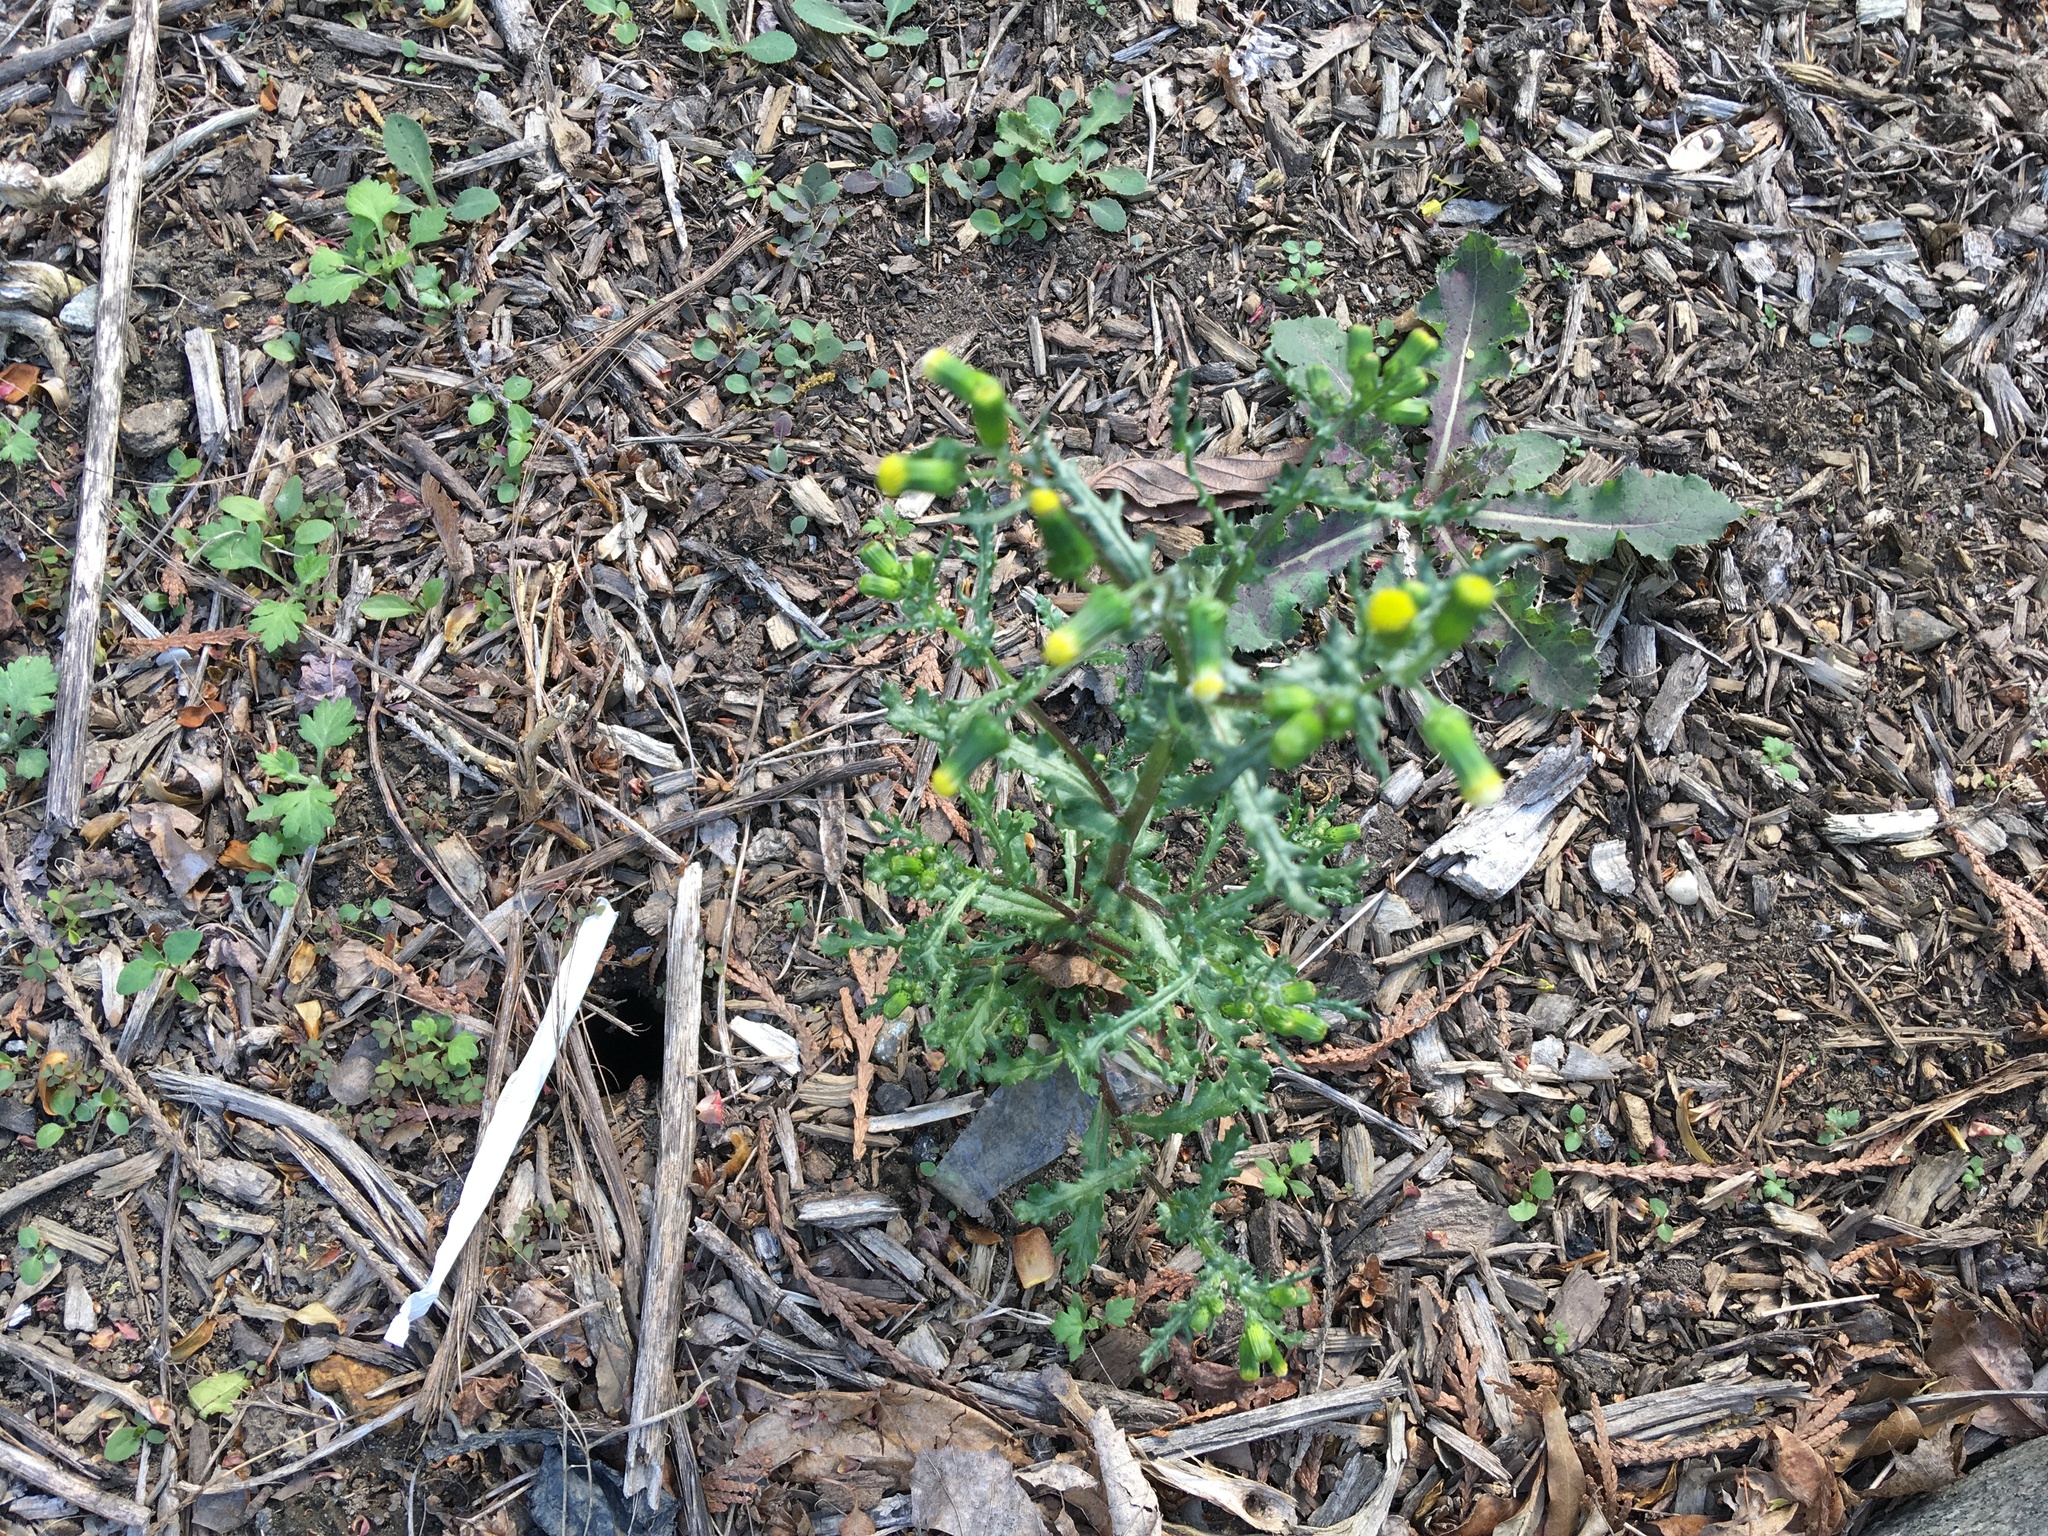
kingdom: Plantae
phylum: Tracheophyta
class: Magnoliopsida
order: Asterales
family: Asteraceae
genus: Senecio
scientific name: Senecio vulgaris
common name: Old-man-in-the-spring
